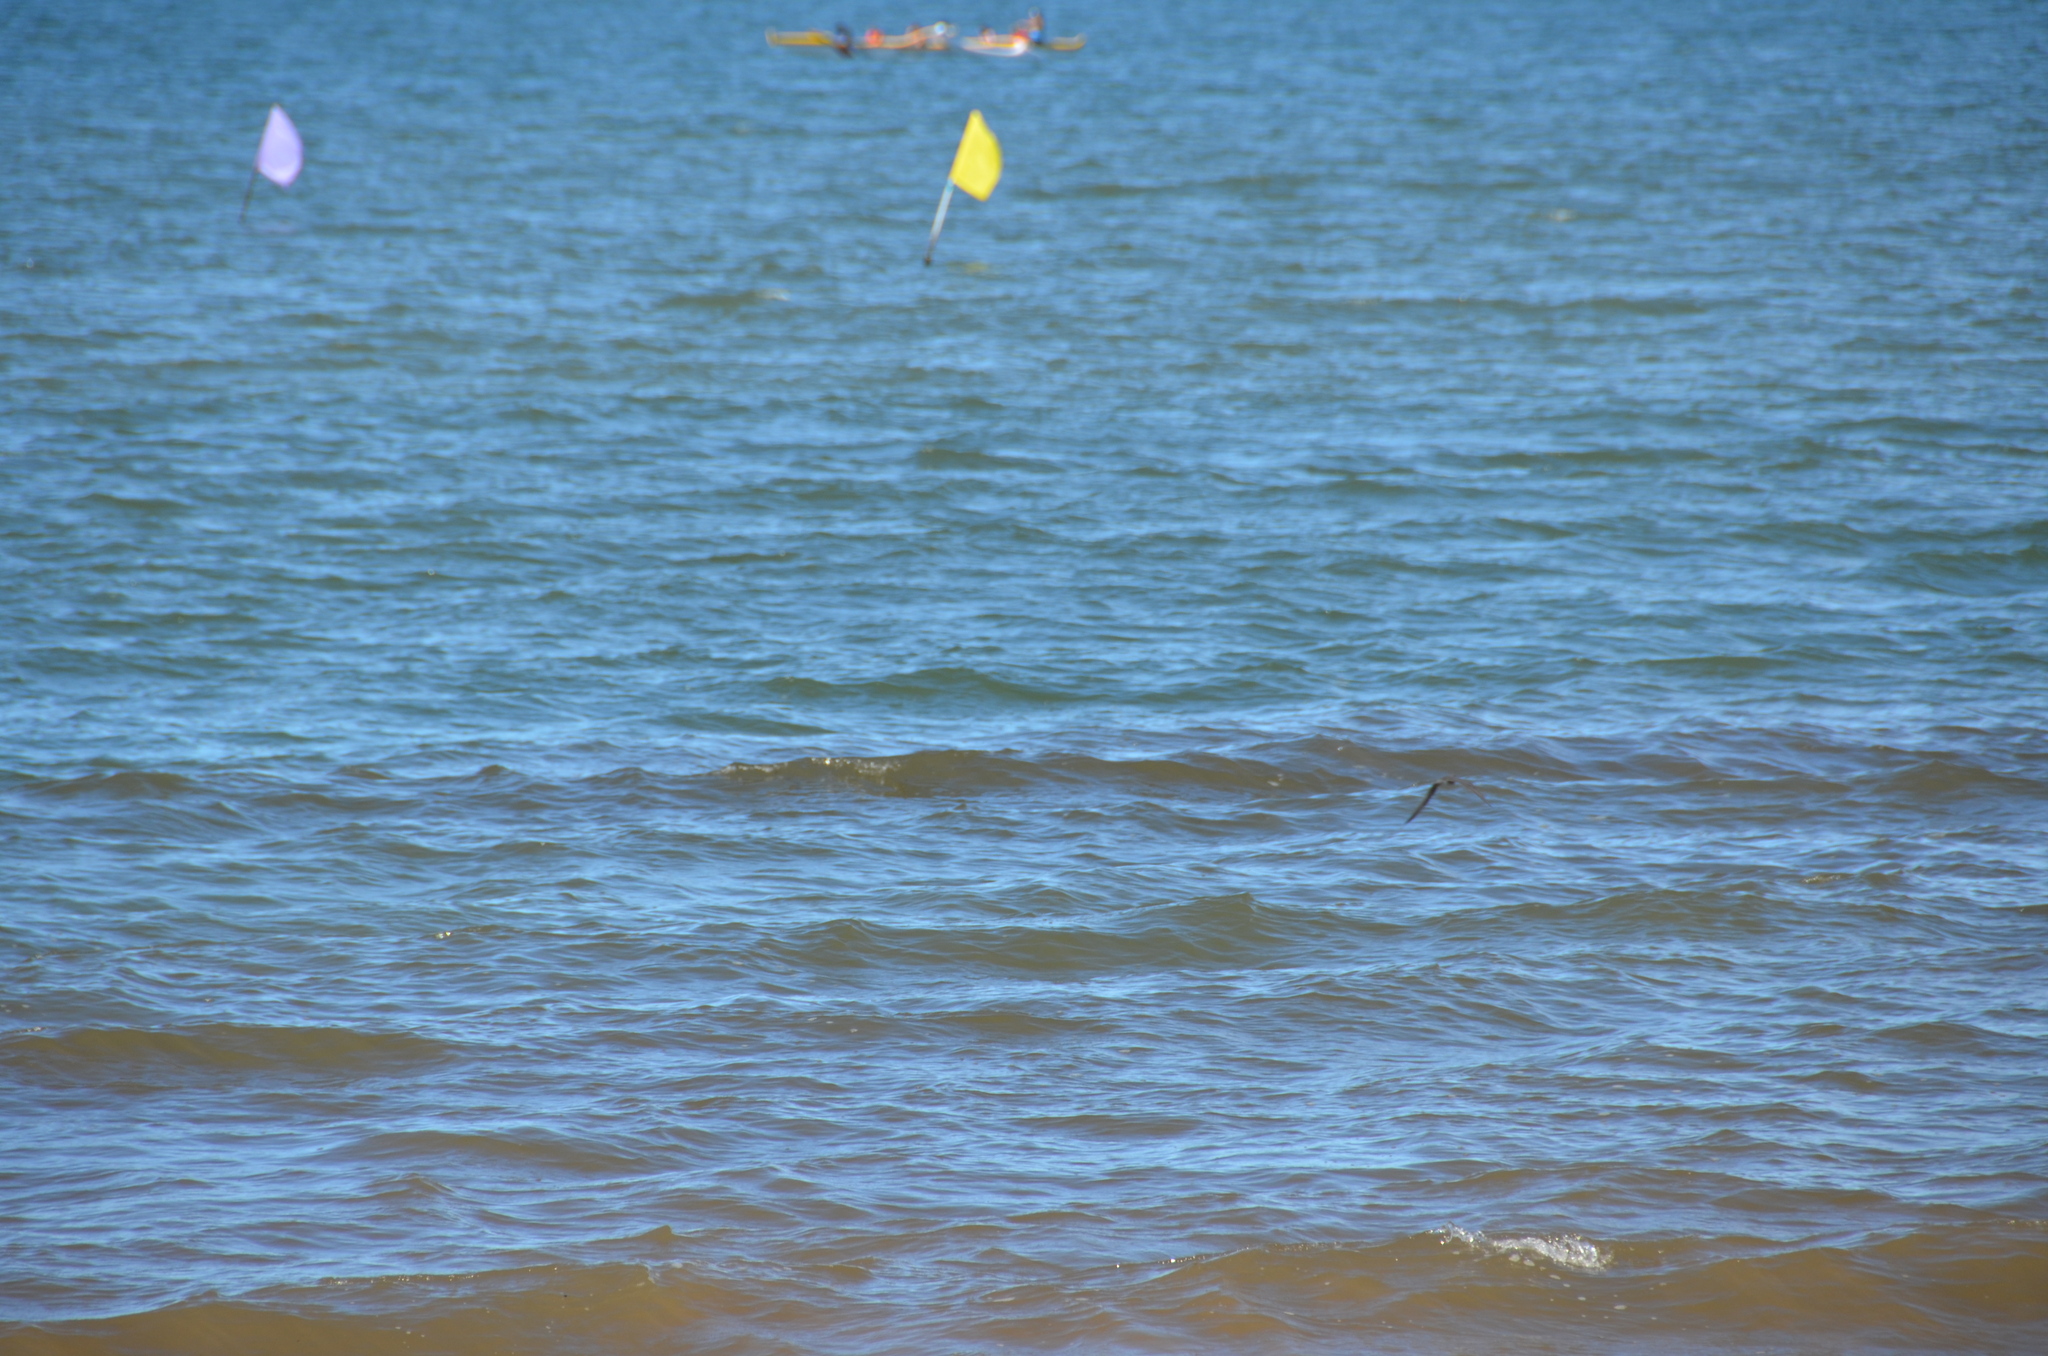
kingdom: Animalia
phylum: Chordata
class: Aves
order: Charadriiformes
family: Scolopacidae
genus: Tringa
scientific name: Tringa incana
